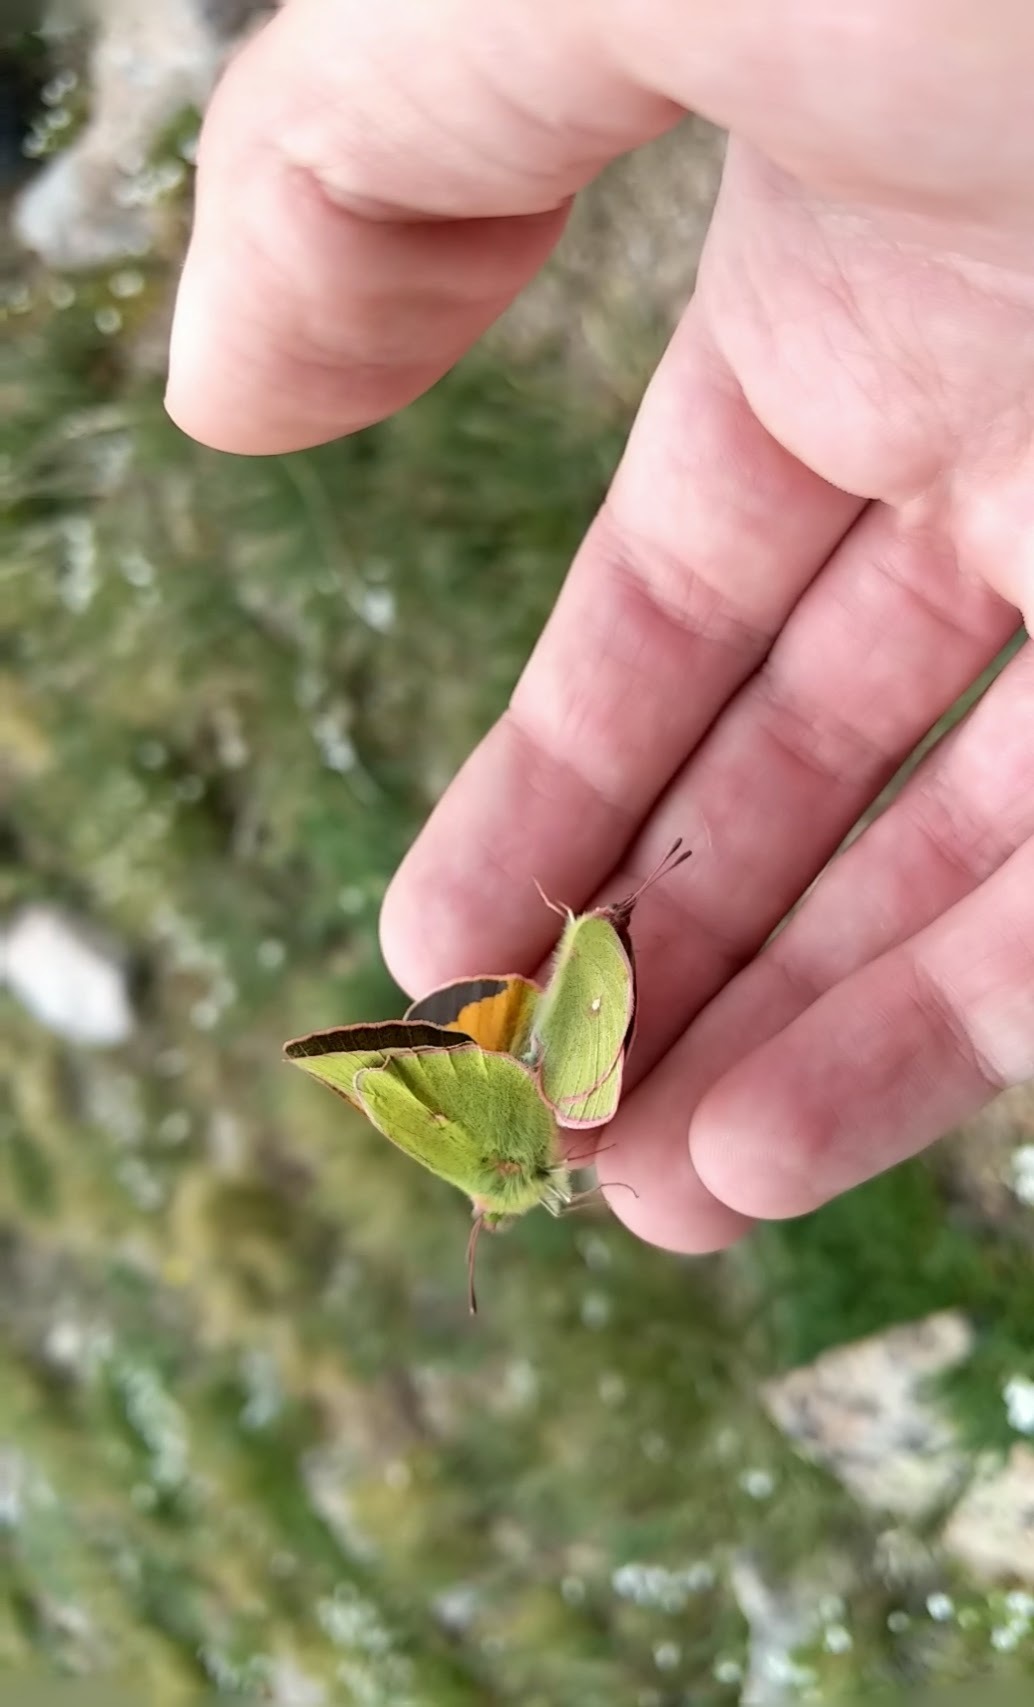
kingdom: Animalia
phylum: Arthropoda
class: Insecta
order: Lepidoptera
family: Pieridae
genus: Colias
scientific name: Colias meadii
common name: Mead's sulphur
